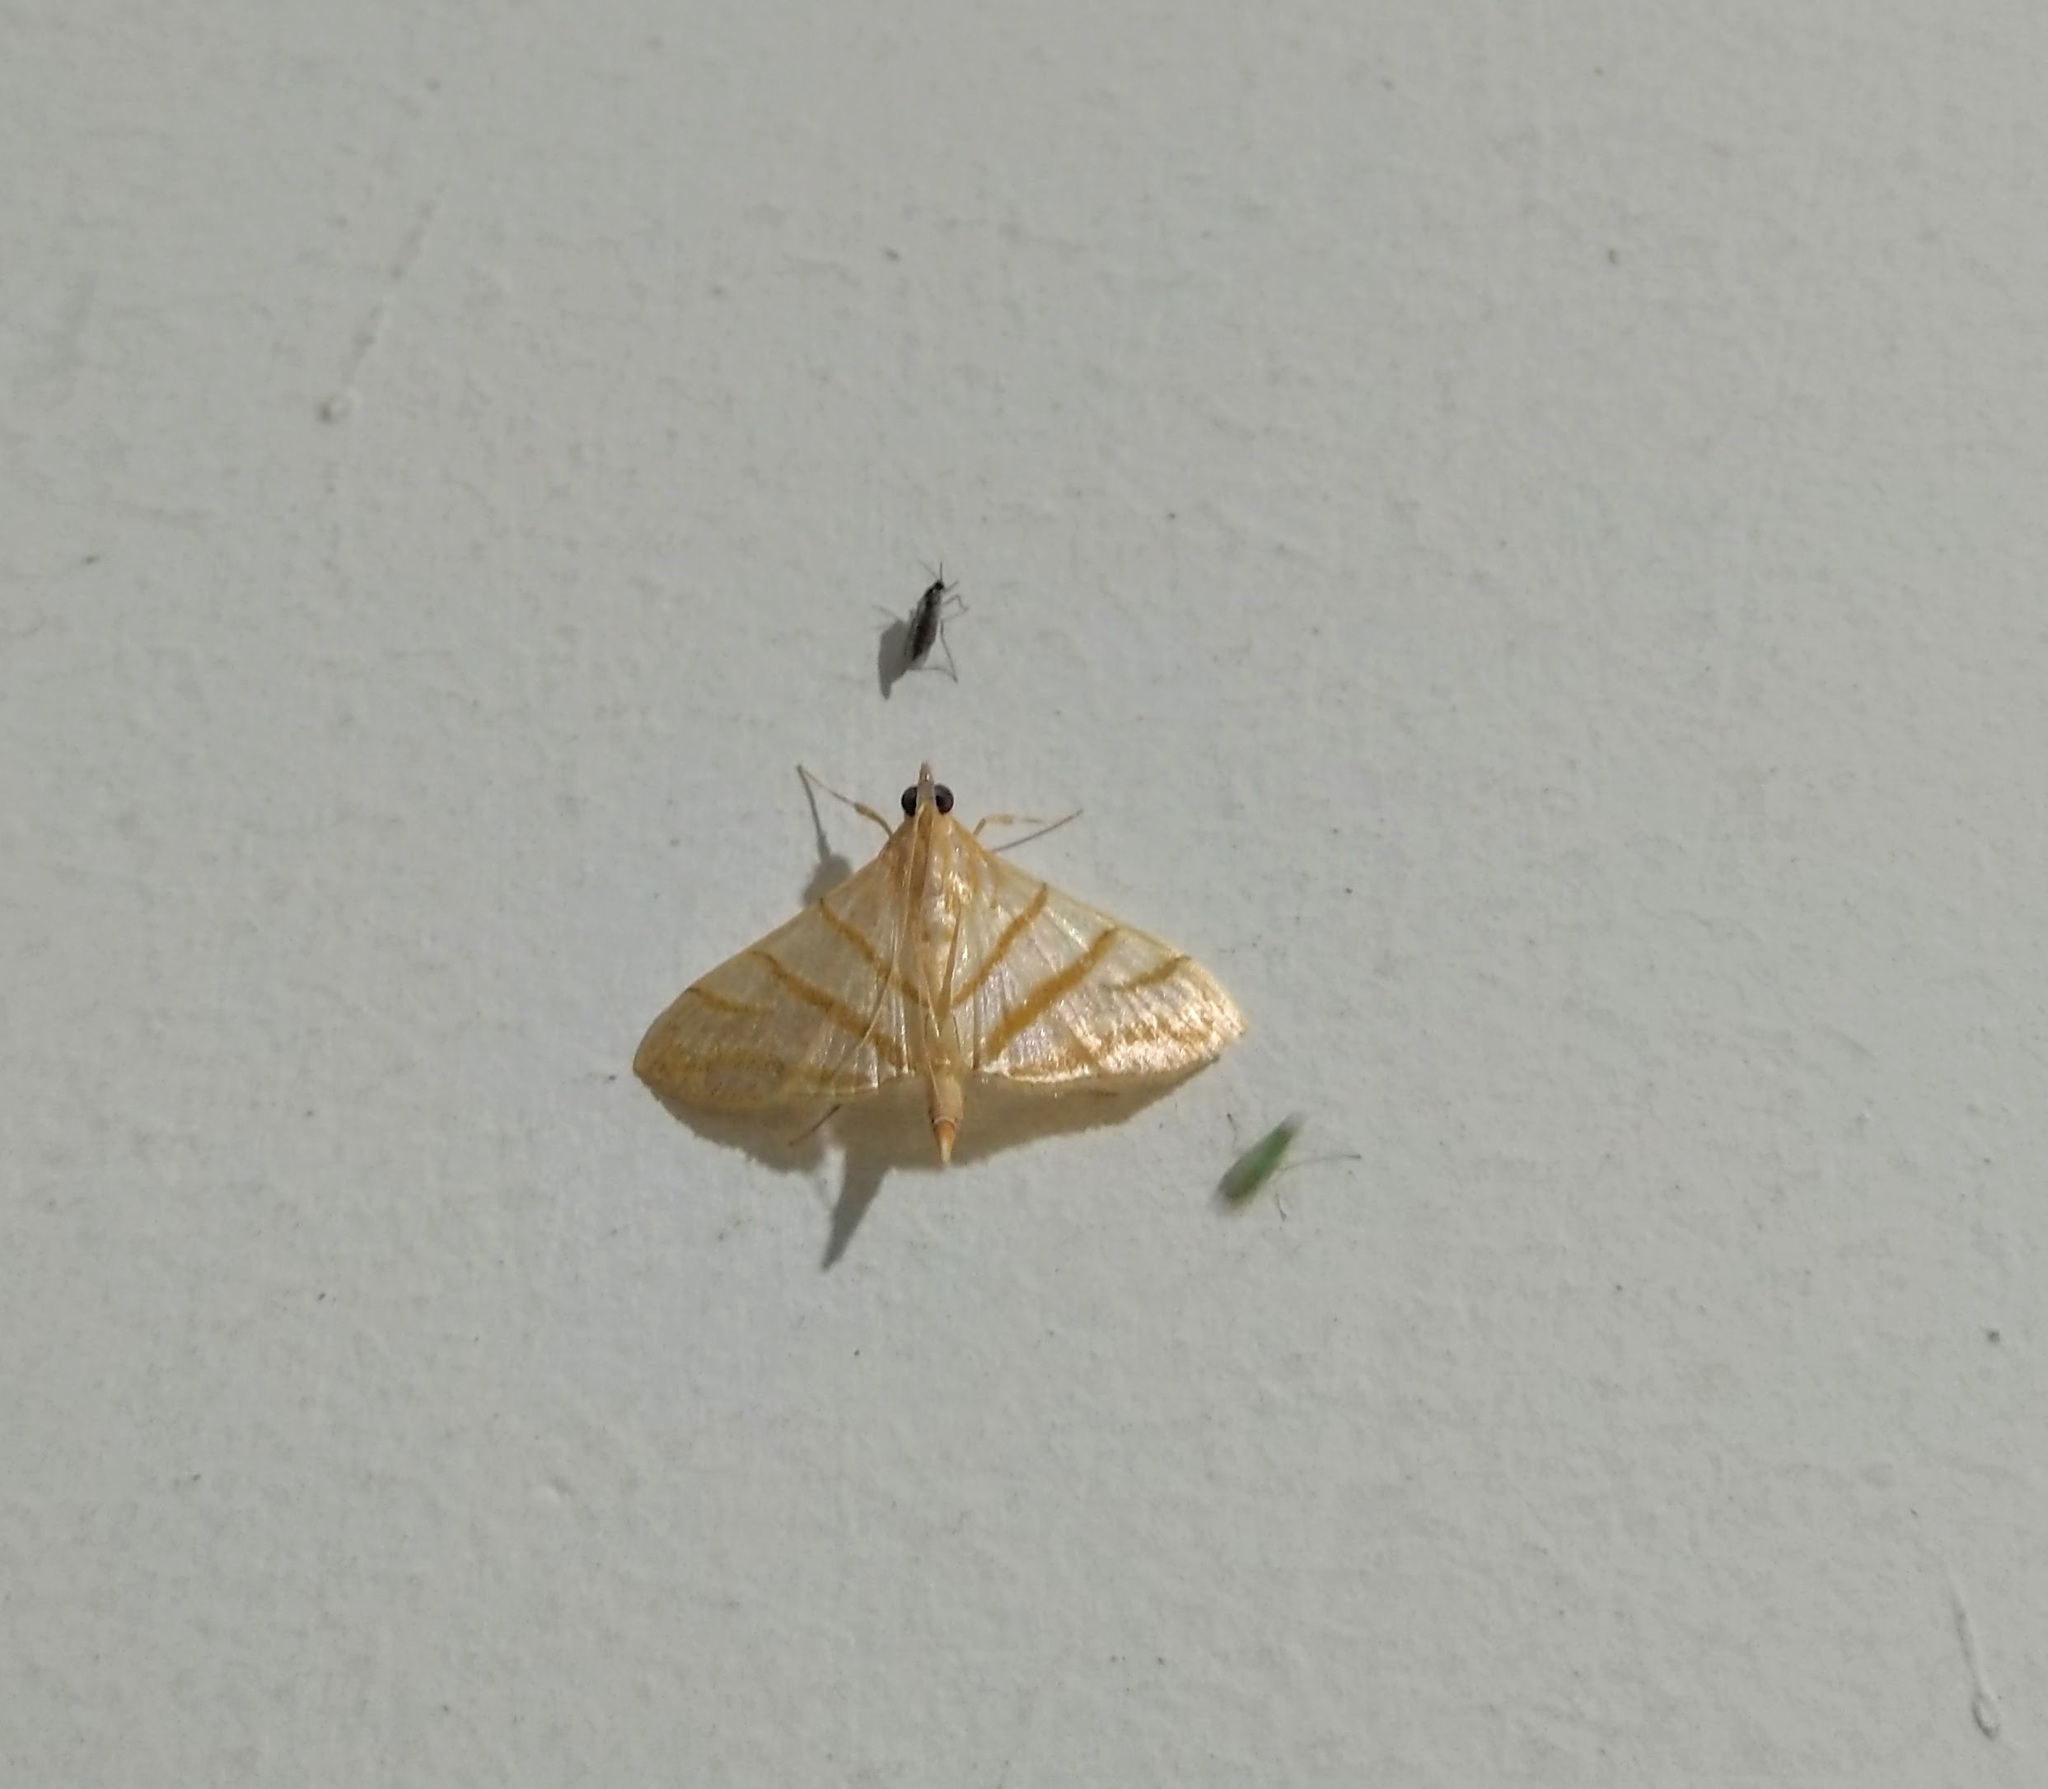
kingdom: Animalia
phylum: Arthropoda
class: Insecta
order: Lepidoptera
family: Crambidae
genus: Pagyda
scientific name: Pagyda salvalis
